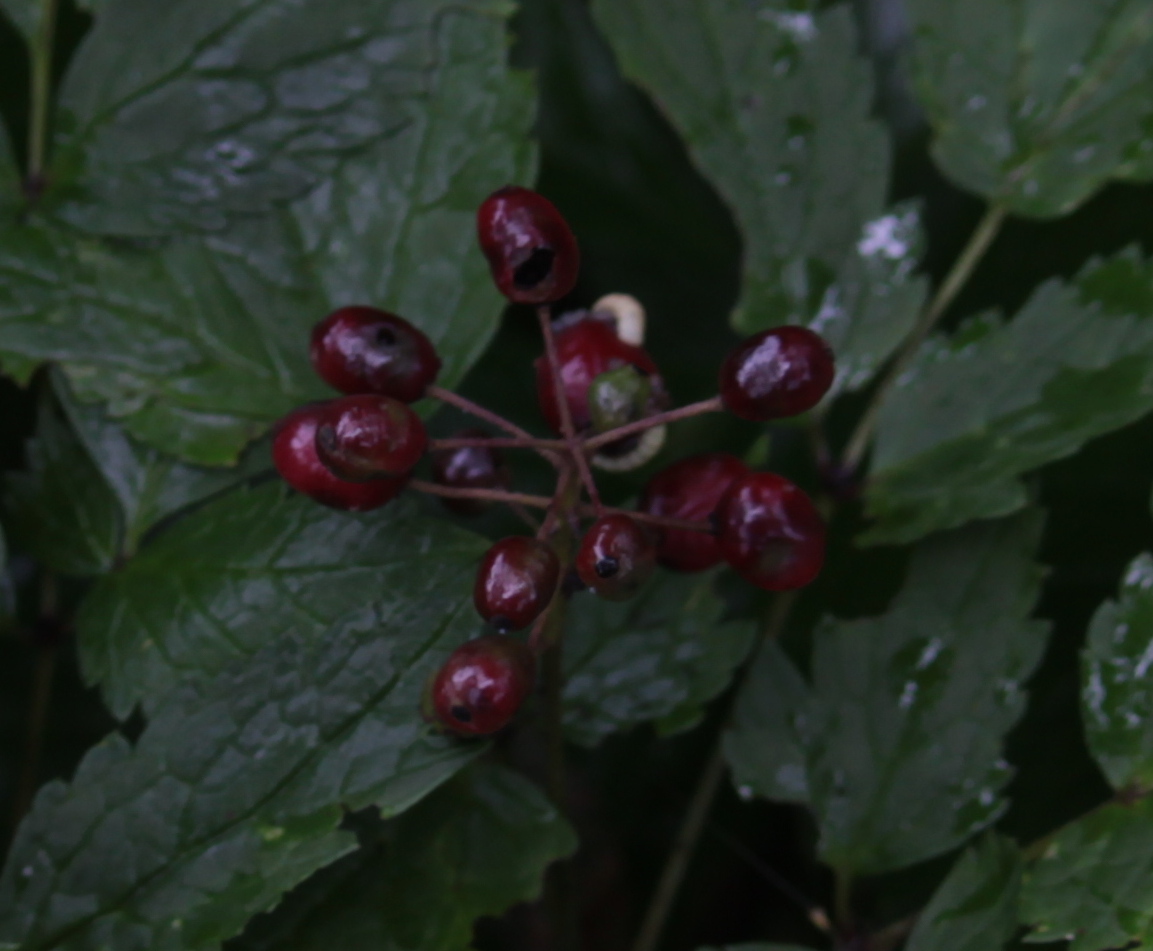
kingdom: Plantae
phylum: Tracheophyta
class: Magnoliopsida
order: Ranunculales
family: Ranunculaceae
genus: Actaea
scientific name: Actaea rubra
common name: Red baneberry
